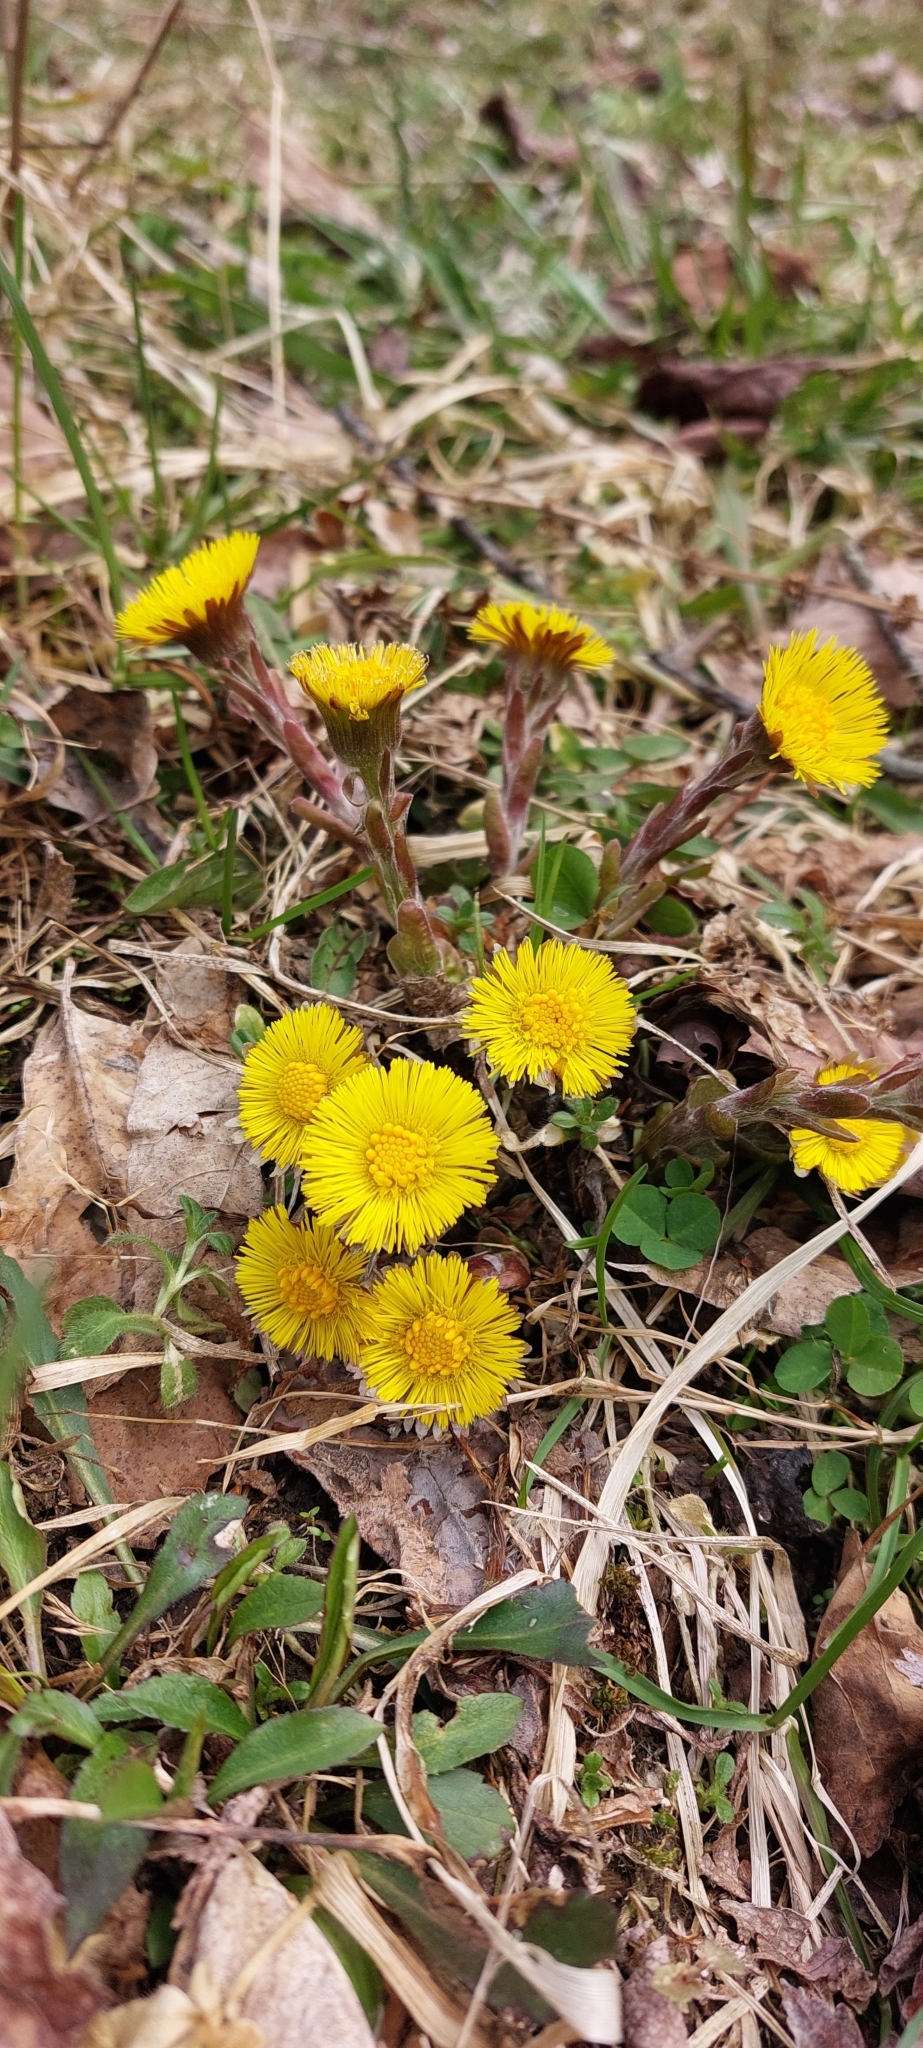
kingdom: Plantae
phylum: Tracheophyta
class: Magnoliopsida
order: Asterales
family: Asteraceae
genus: Tussilago
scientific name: Tussilago farfara
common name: Coltsfoot
